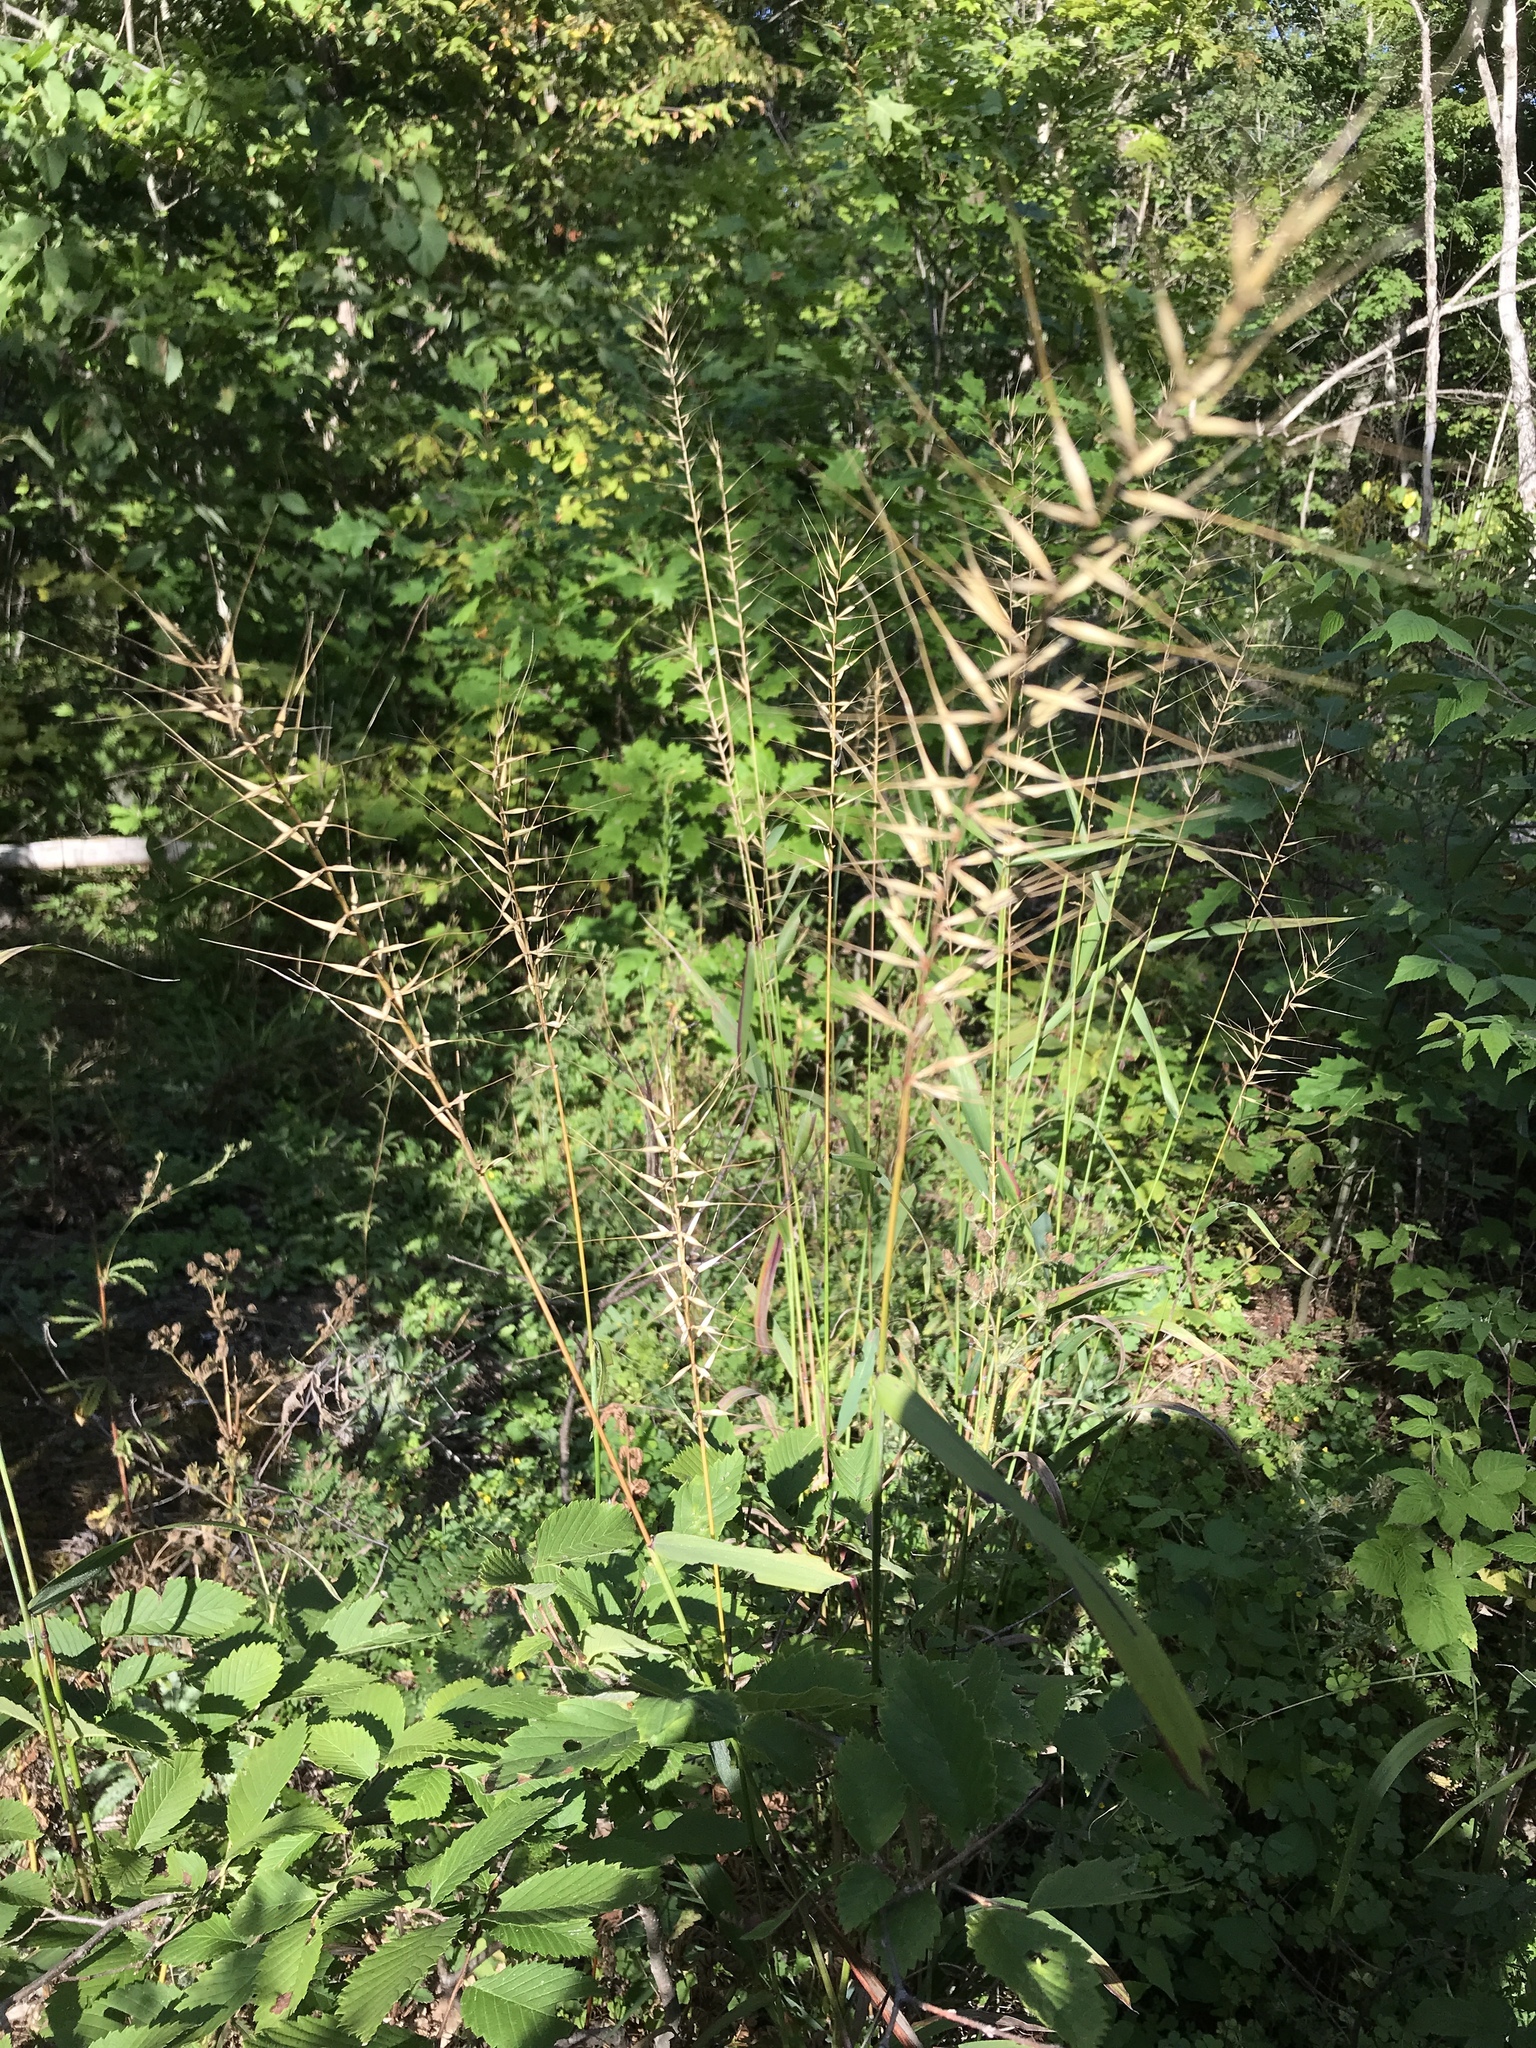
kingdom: Plantae
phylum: Tracheophyta
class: Liliopsida
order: Poales
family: Poaceae
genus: Elymus
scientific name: Elymus hystrix
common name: Bottlebrush grass
